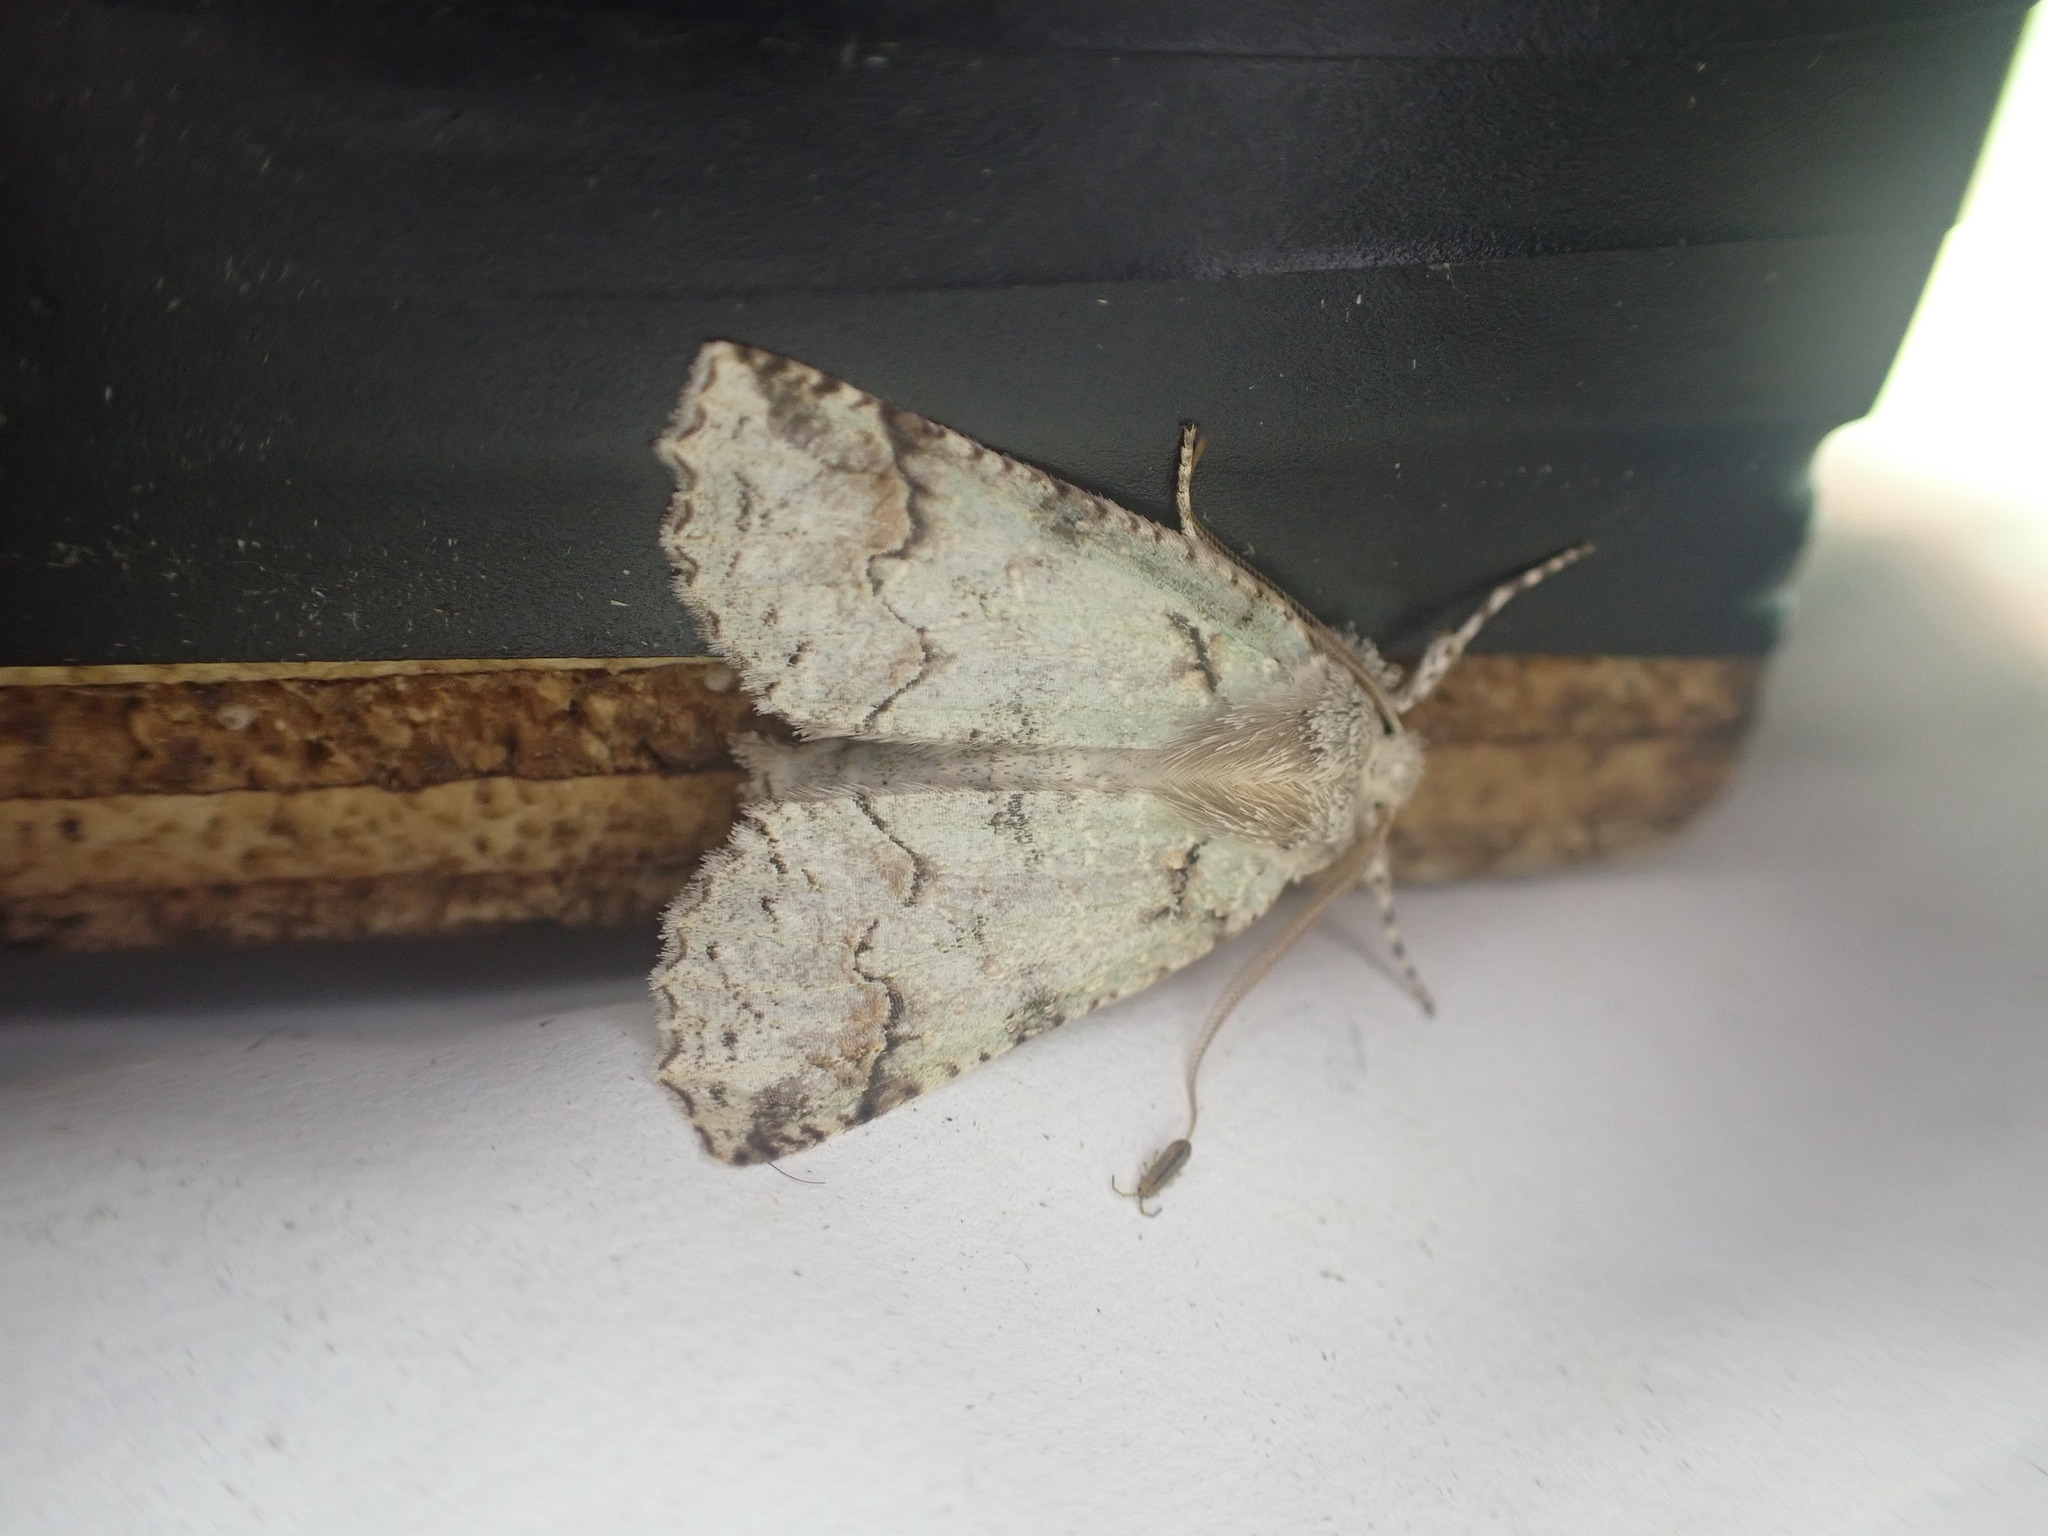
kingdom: Animalia
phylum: Arthropoda
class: Insecta
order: Lepidoptera
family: Geometridae
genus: Declana
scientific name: Declana floccosa
